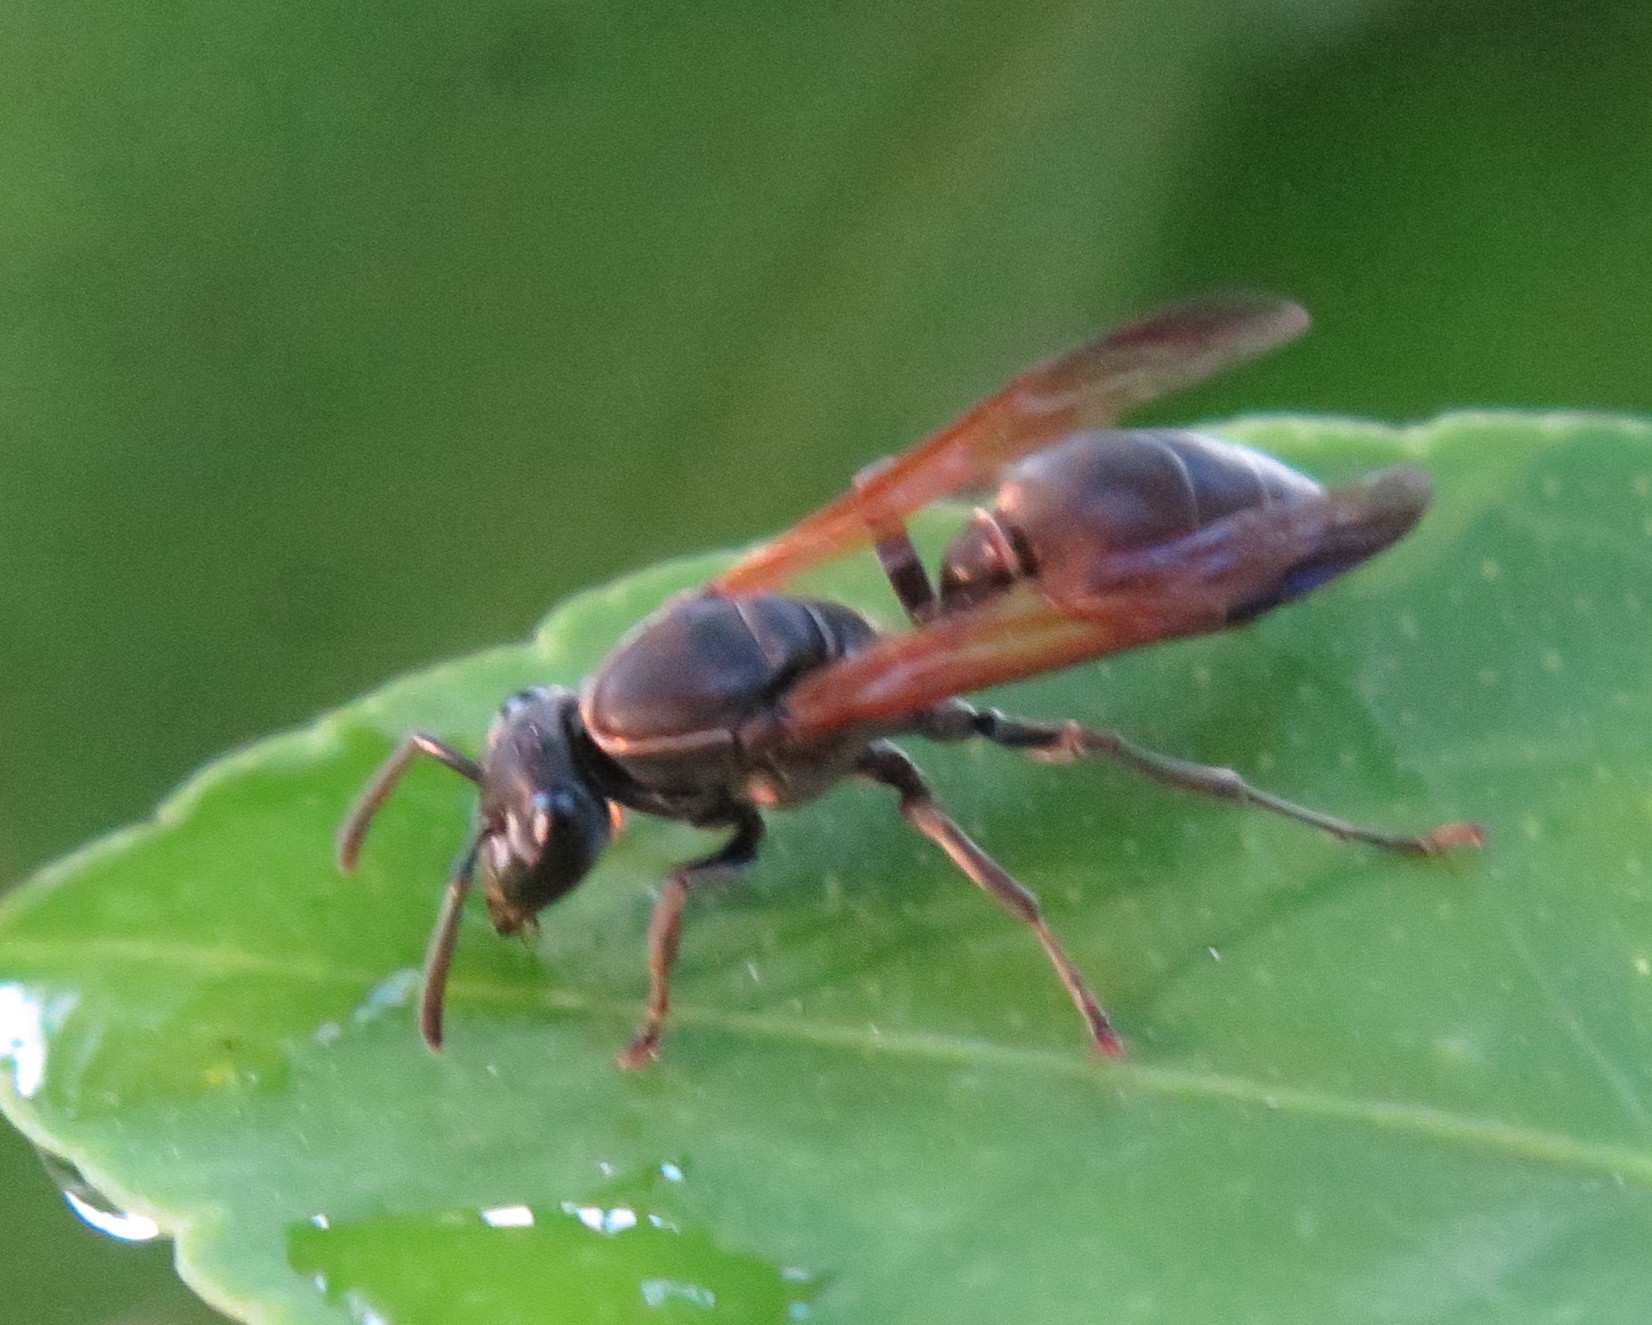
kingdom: Animalia
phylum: Arthropoda
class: Insecta
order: Hymenoptera
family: Eumenidae
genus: Polybia
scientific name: Polybia rejecta
